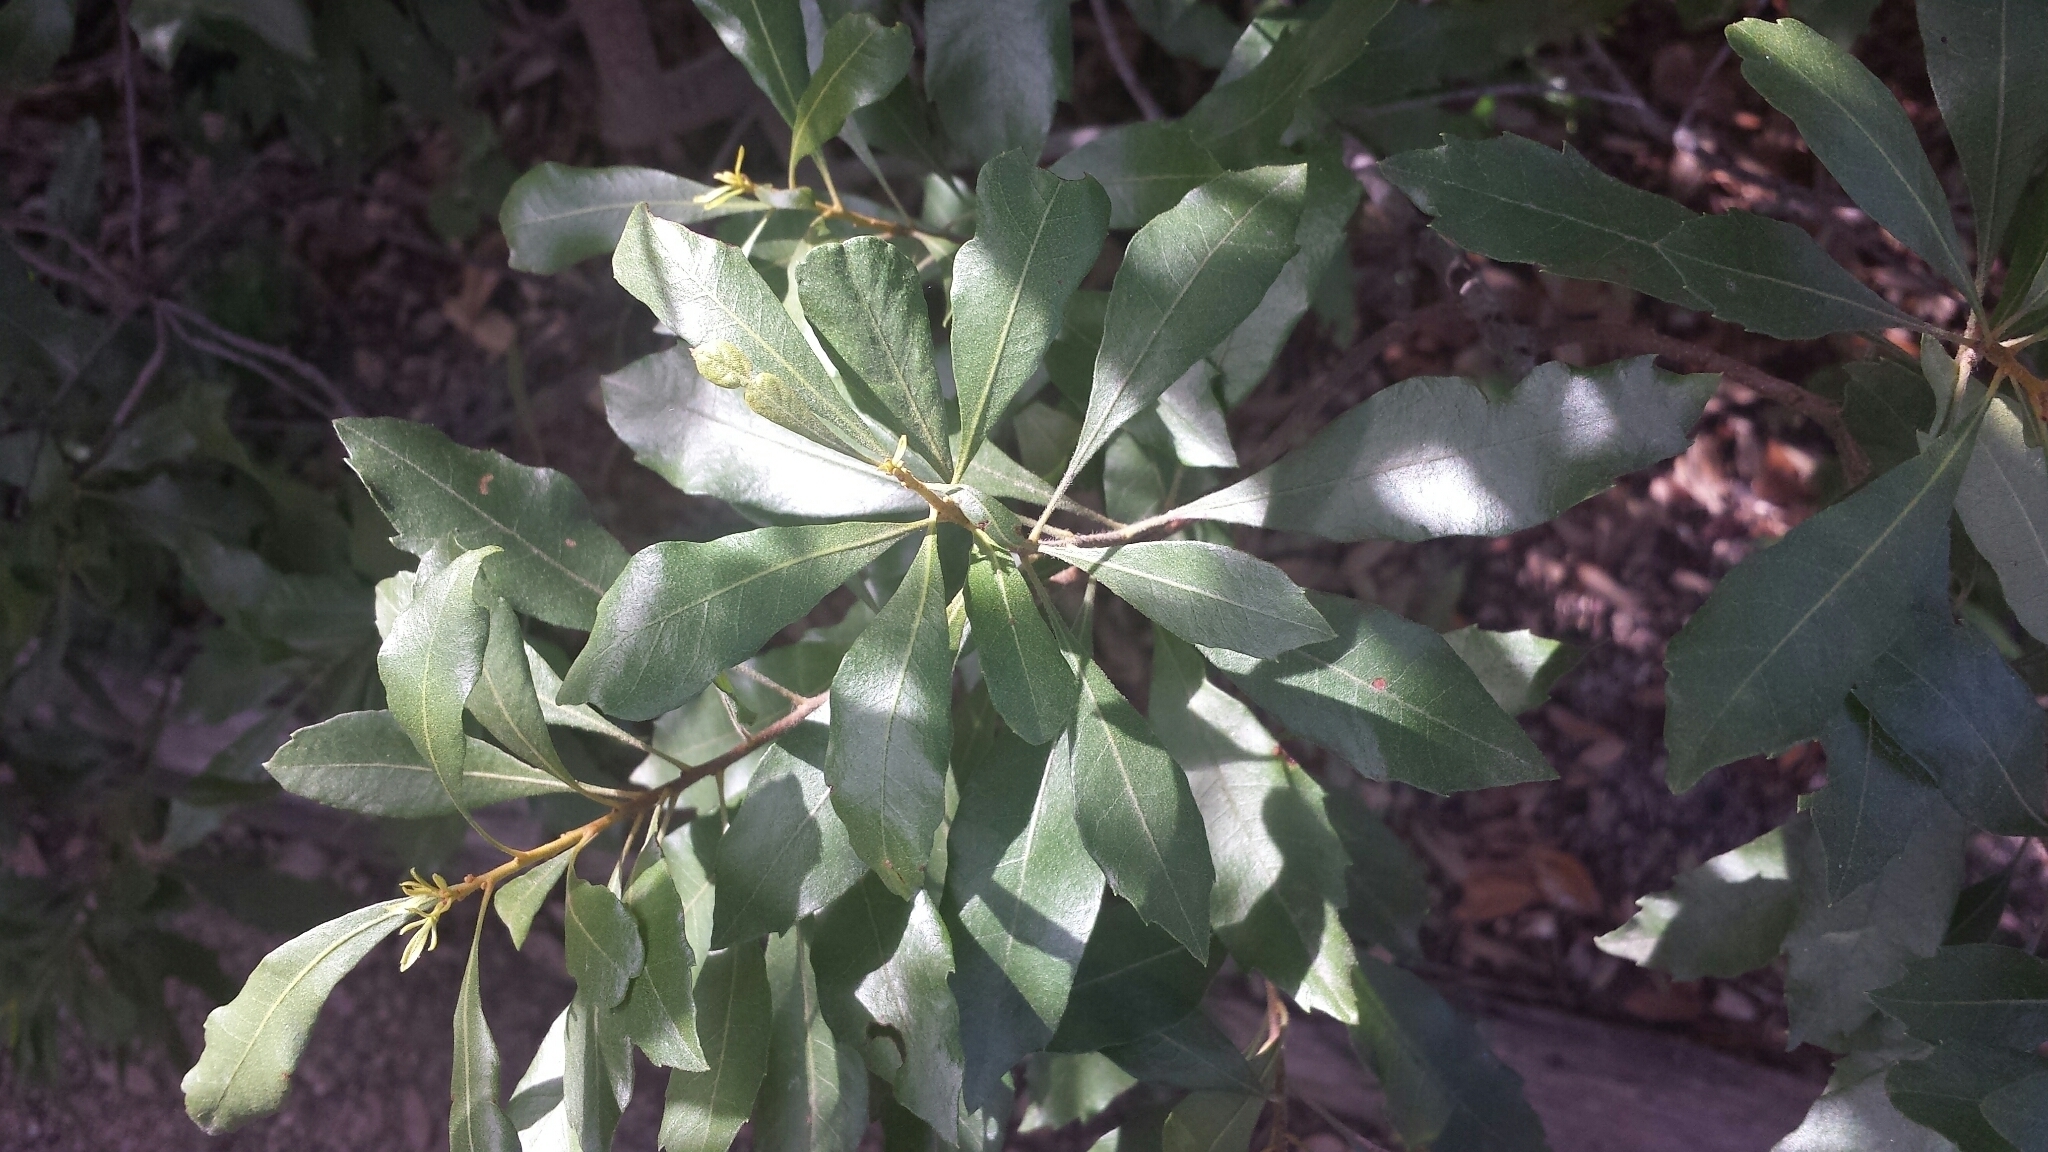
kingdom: Plantae
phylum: Tracheophyta
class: Magnoliopsida
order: Fagales
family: Myricaceae
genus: Morella
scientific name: Morella cerifera
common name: Wax myrtle
